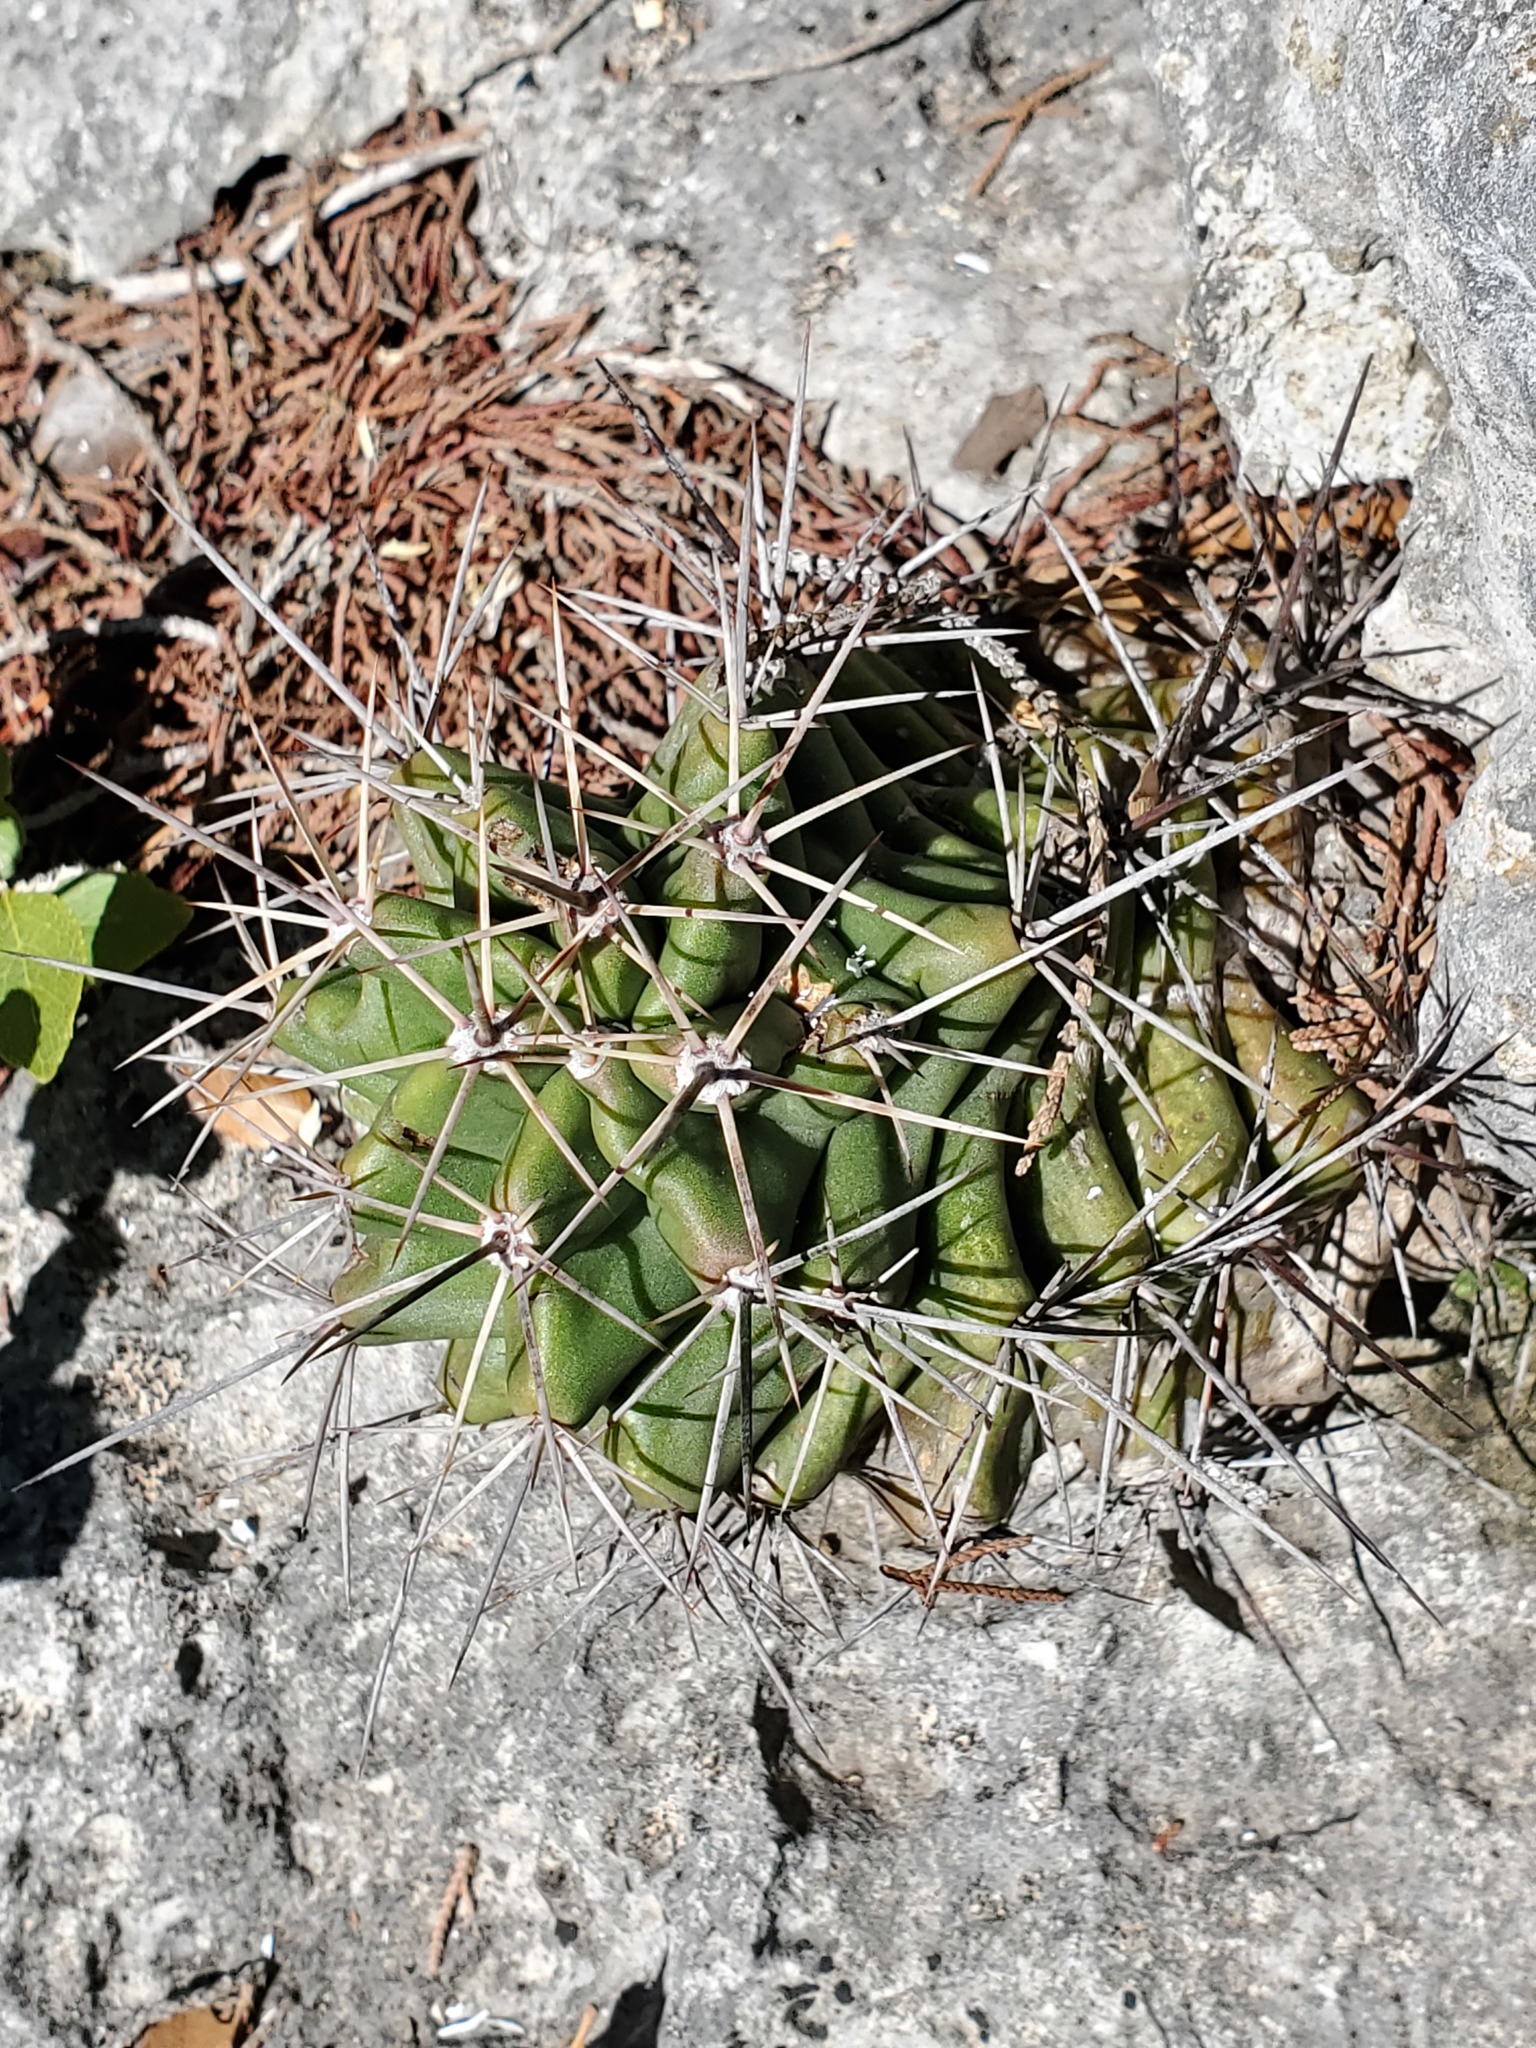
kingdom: Plantae
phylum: Tracheophyta
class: Magnoliopsida
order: Caryophyllales
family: Cactaceae
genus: Echinocereus
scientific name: Echinocereus coccineus
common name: Scarlet hedgehog cactus
